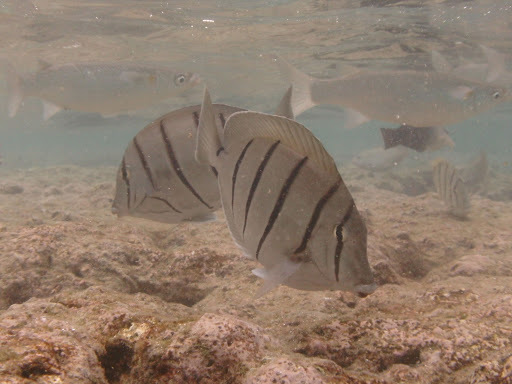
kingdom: Animalia
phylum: Chordata
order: Perciformes
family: Acanthuridae
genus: Acanthurus
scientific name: Acanthurus triostegus
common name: Convict surgeonfish
